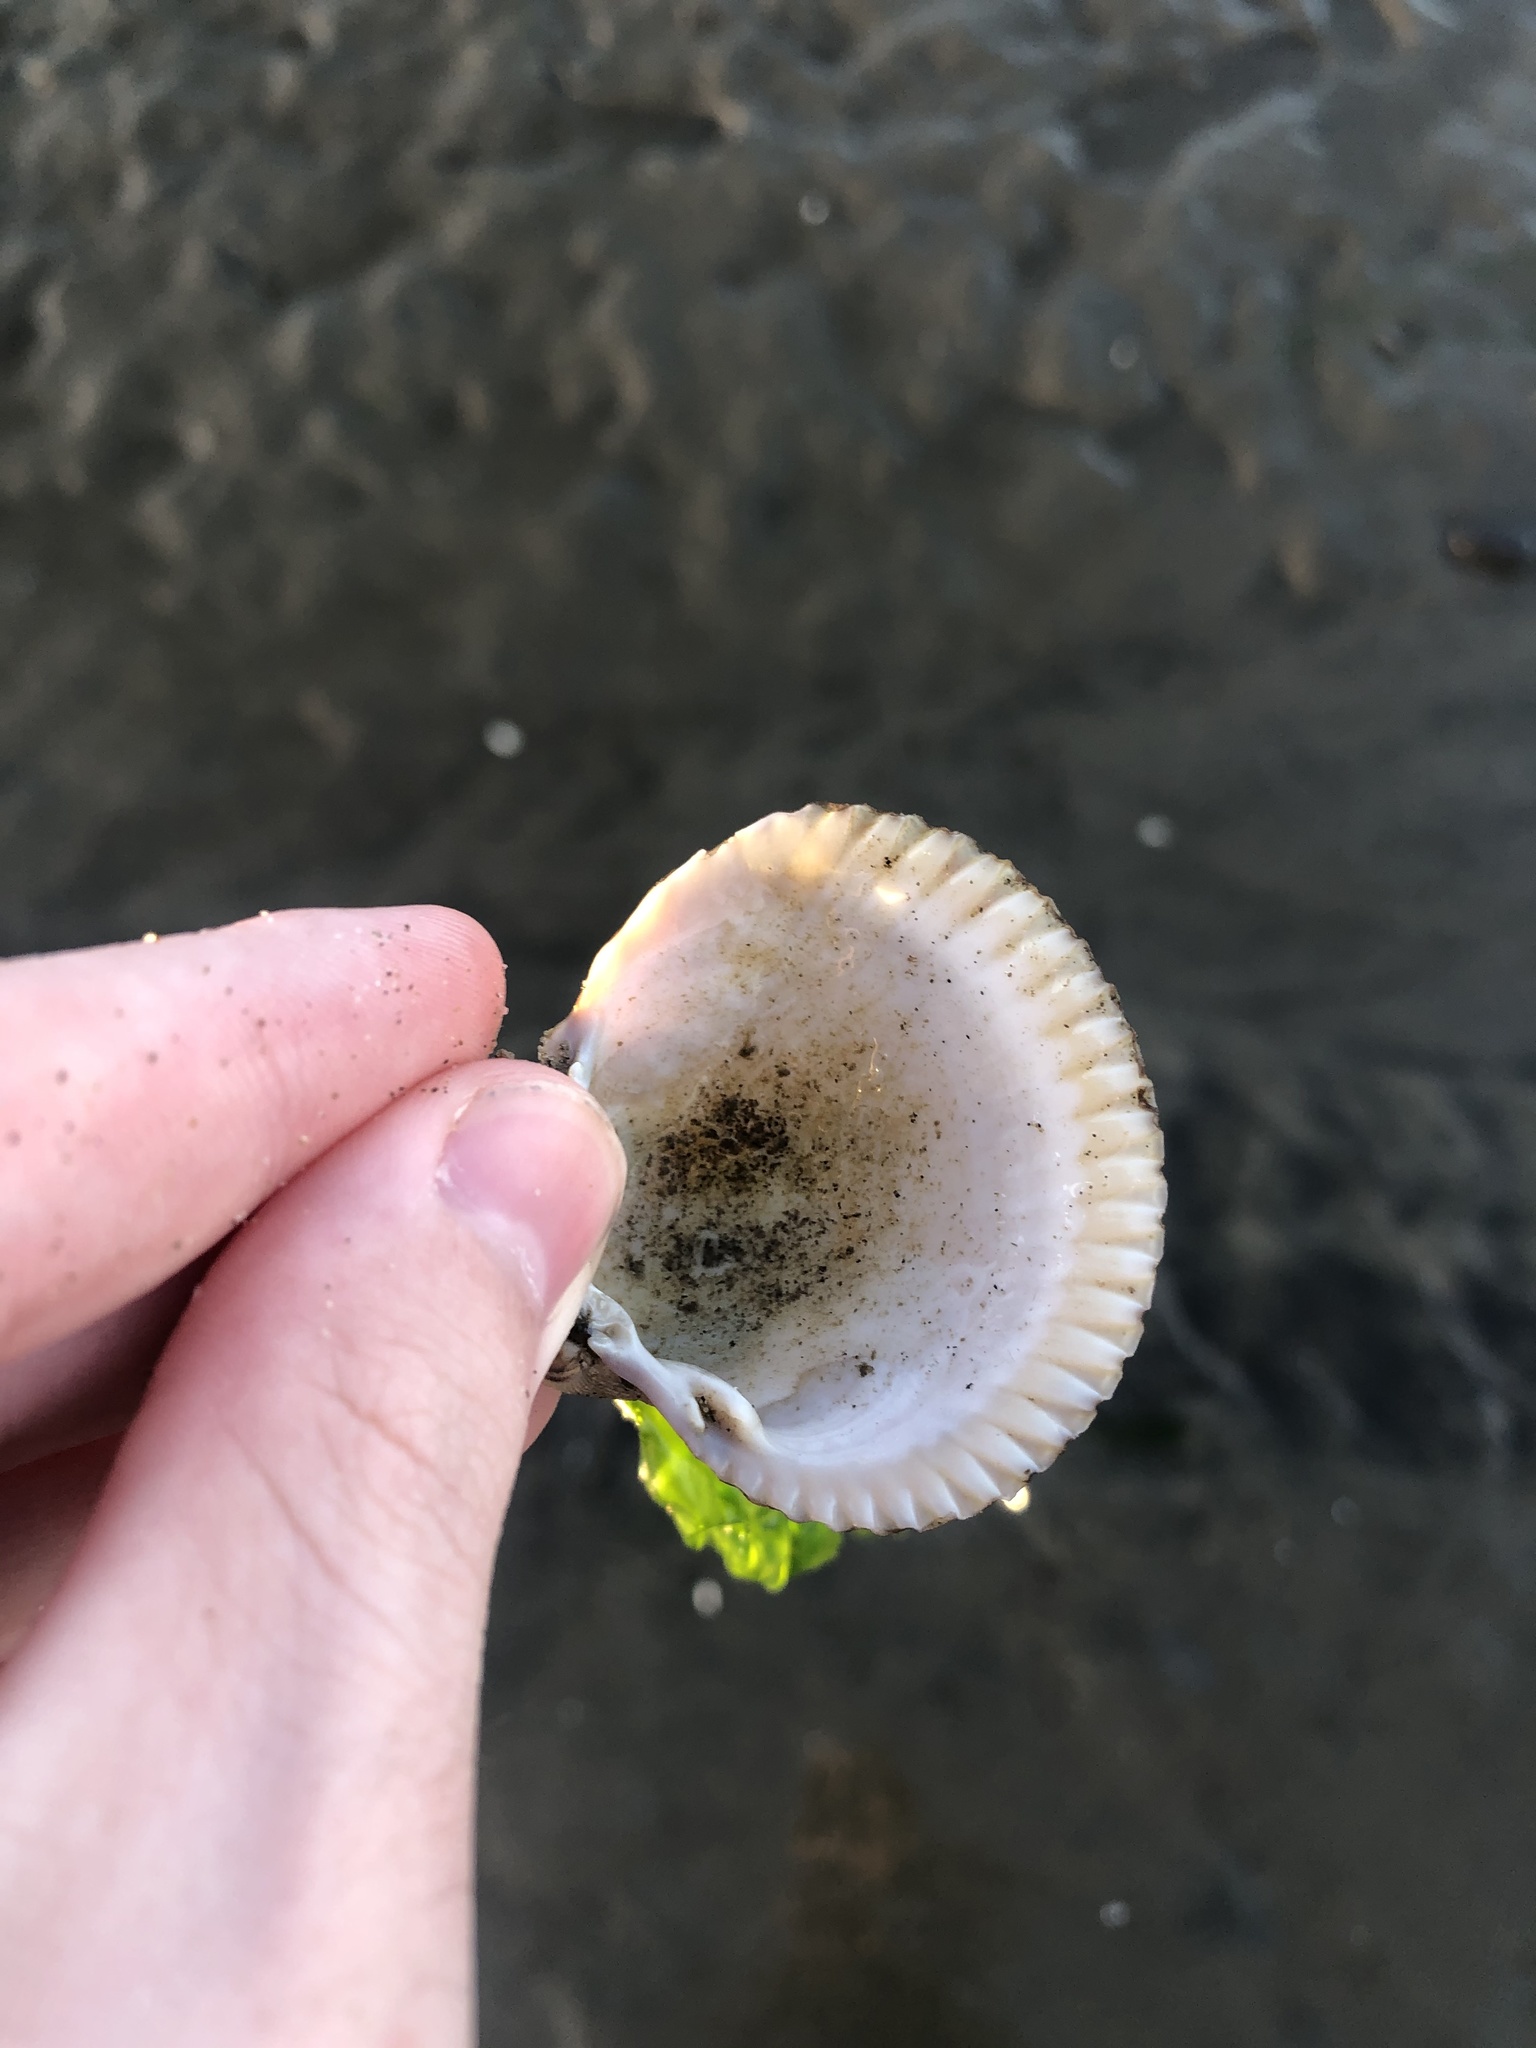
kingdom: Animalia
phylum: Mollusca
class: Bivalvia
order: Cardiida
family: Cardiidae
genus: Clinocardium
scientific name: Clinocardium nuttallii
